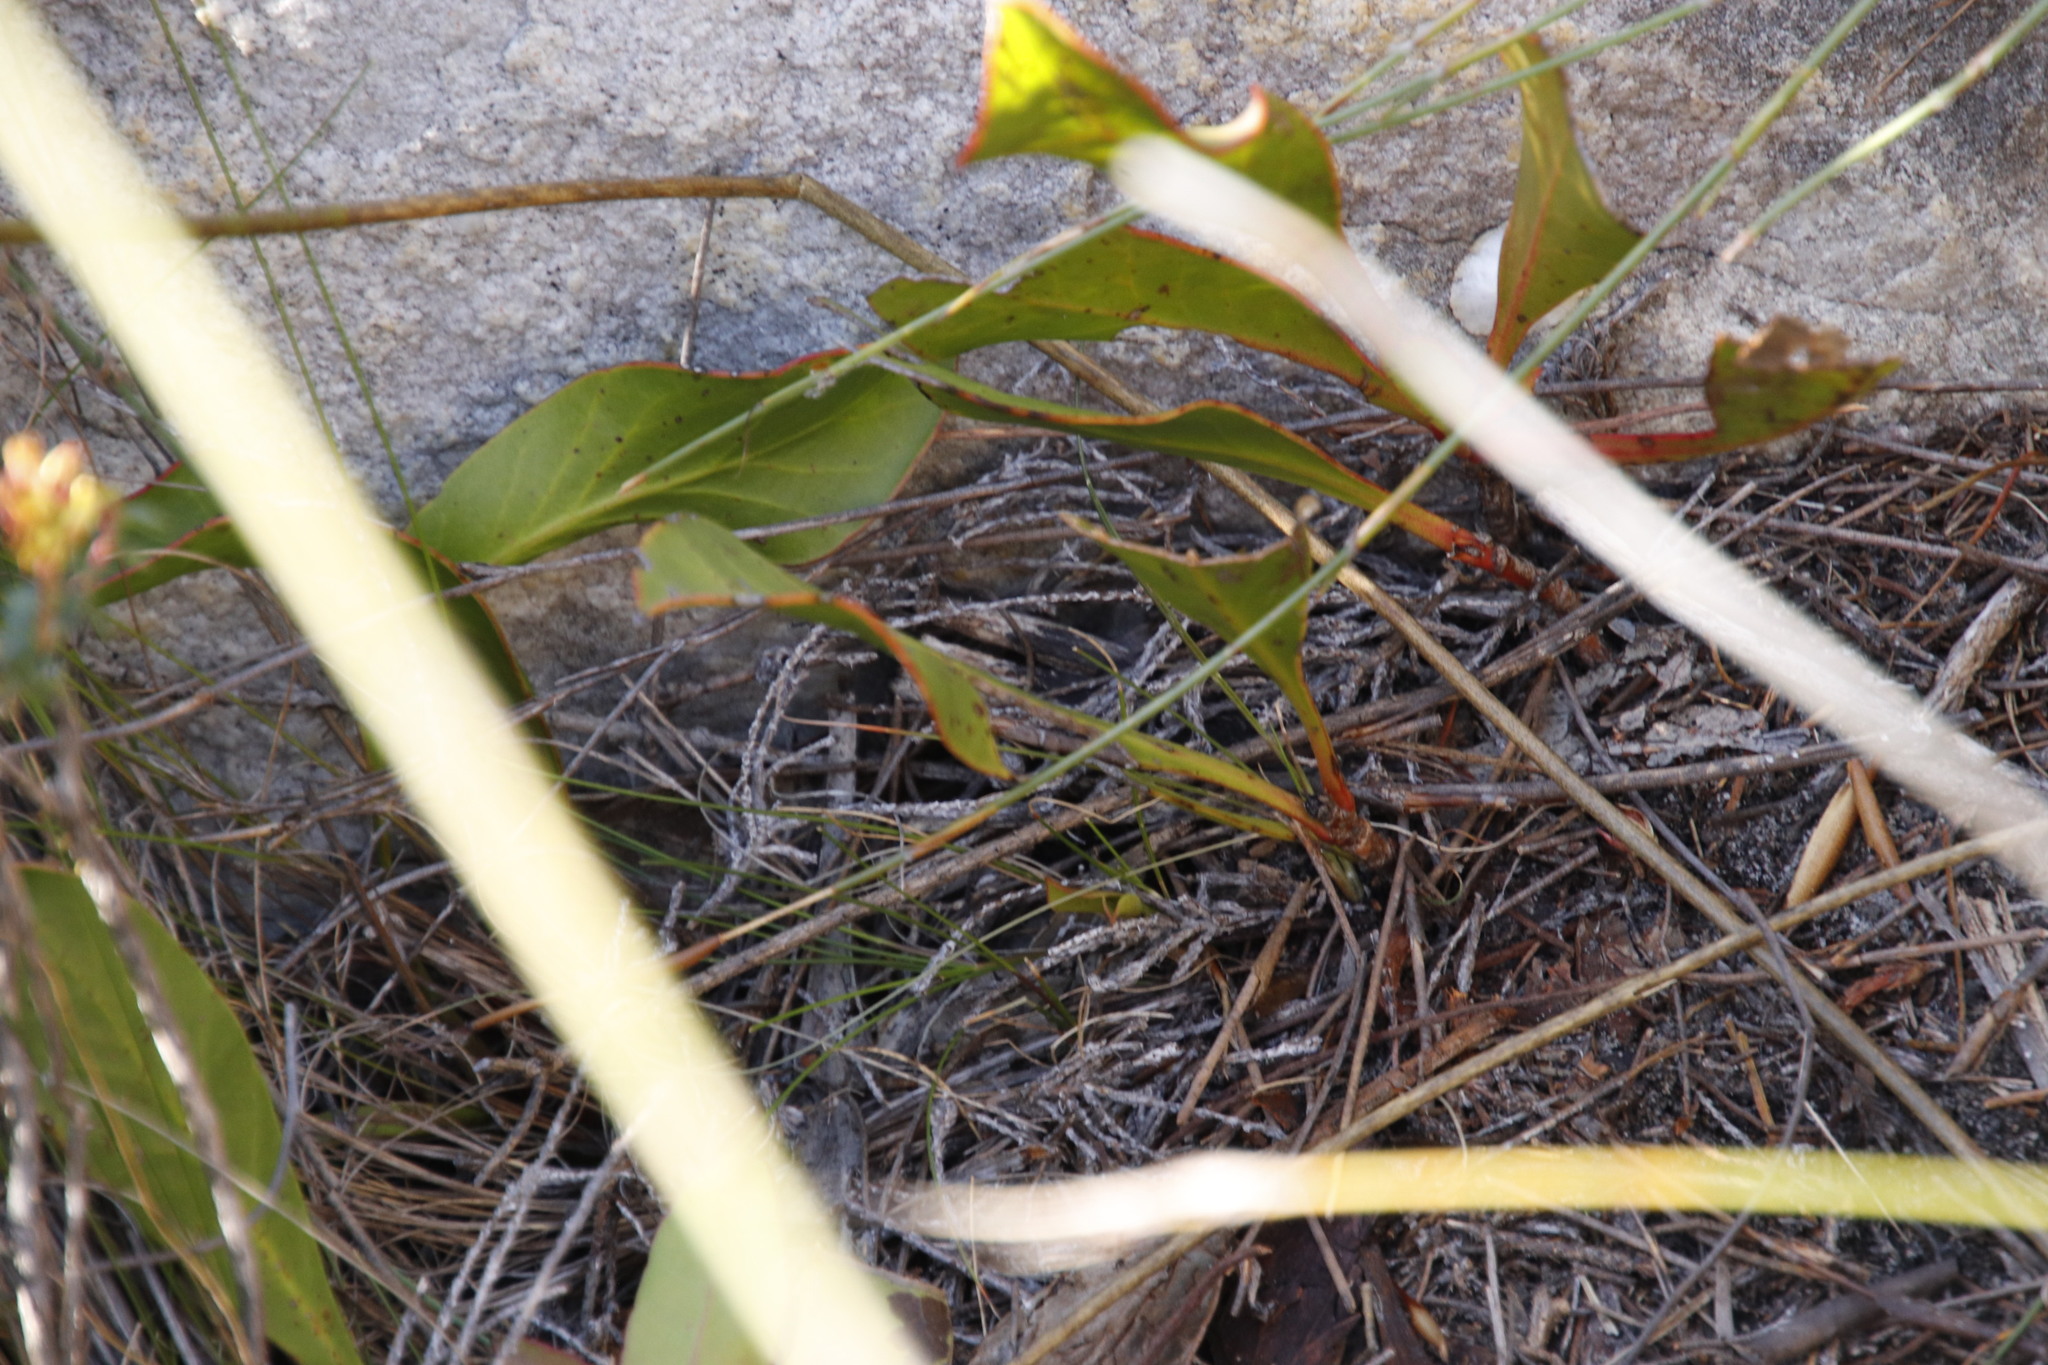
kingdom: Plantae
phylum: Tracheophyta
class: Magnoliopsida
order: Proteales
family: Proteaceae
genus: Protea
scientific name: Protea acaulos
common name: Common ground sugarbush
